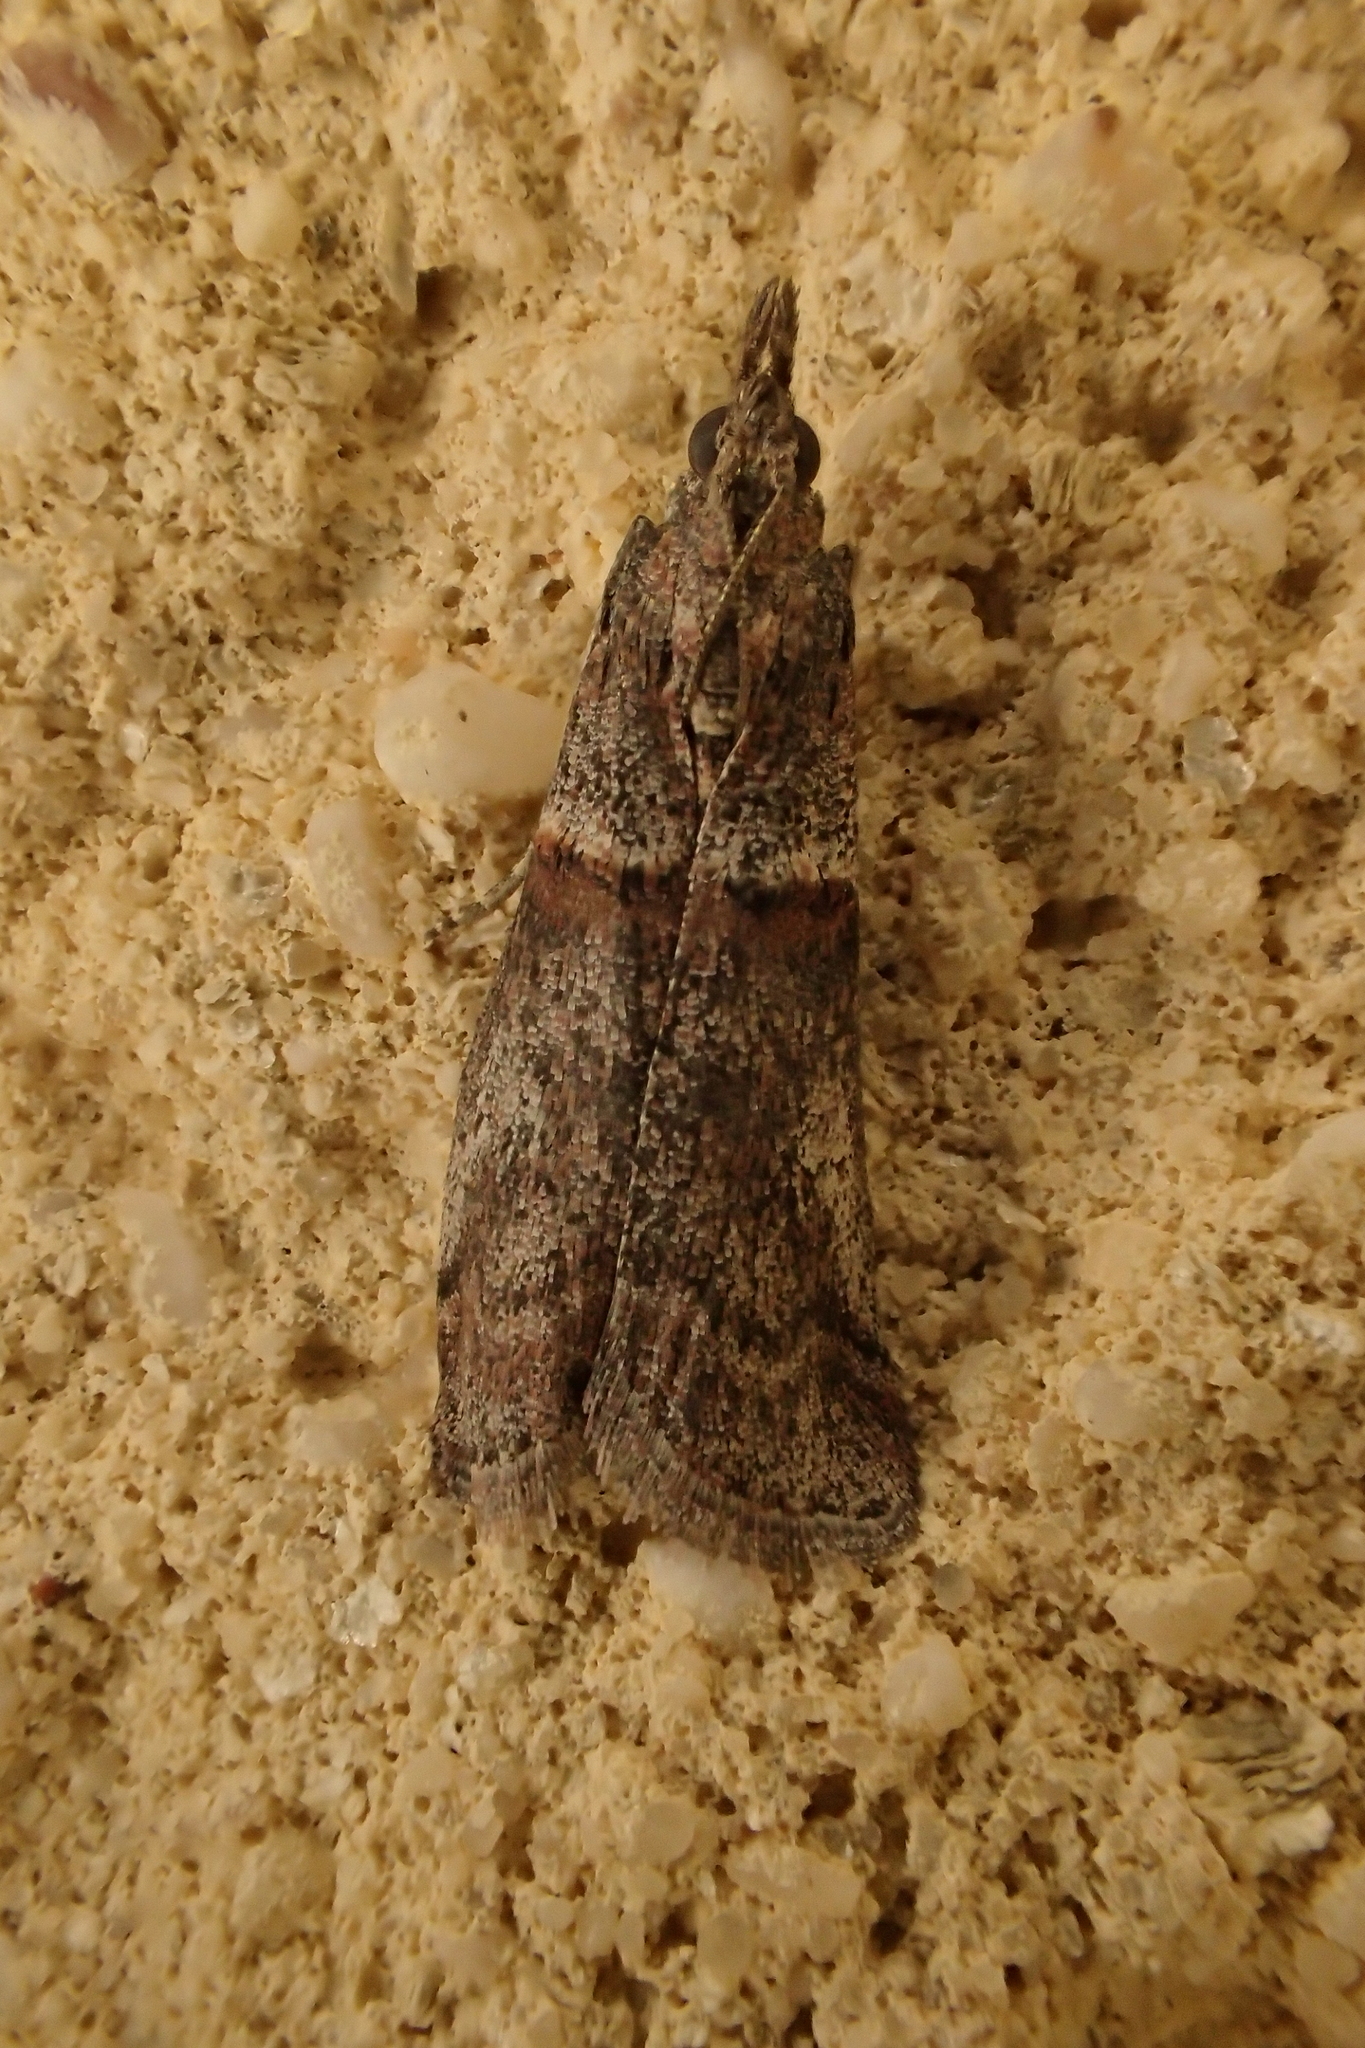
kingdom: Animalia
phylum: Arthropoda
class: Insecta
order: Lepidoptera
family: Pyralidae
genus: Acrobasis
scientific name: Acrobasis obliqua
